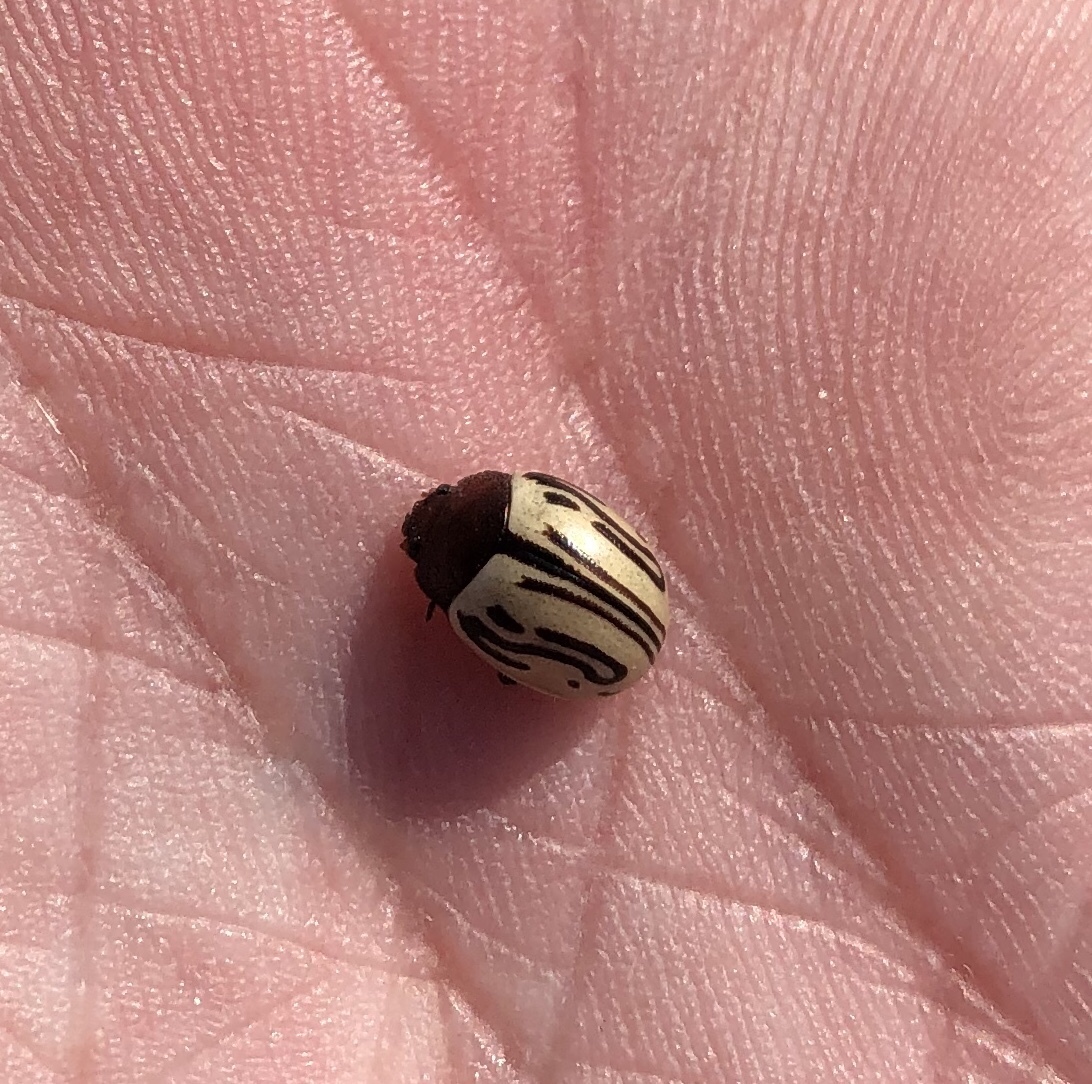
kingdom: Animalia
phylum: Arthropoda
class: Insecta
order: Coleoptera
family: Chrysomelidae
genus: Calligrapha
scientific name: Calligrapha
